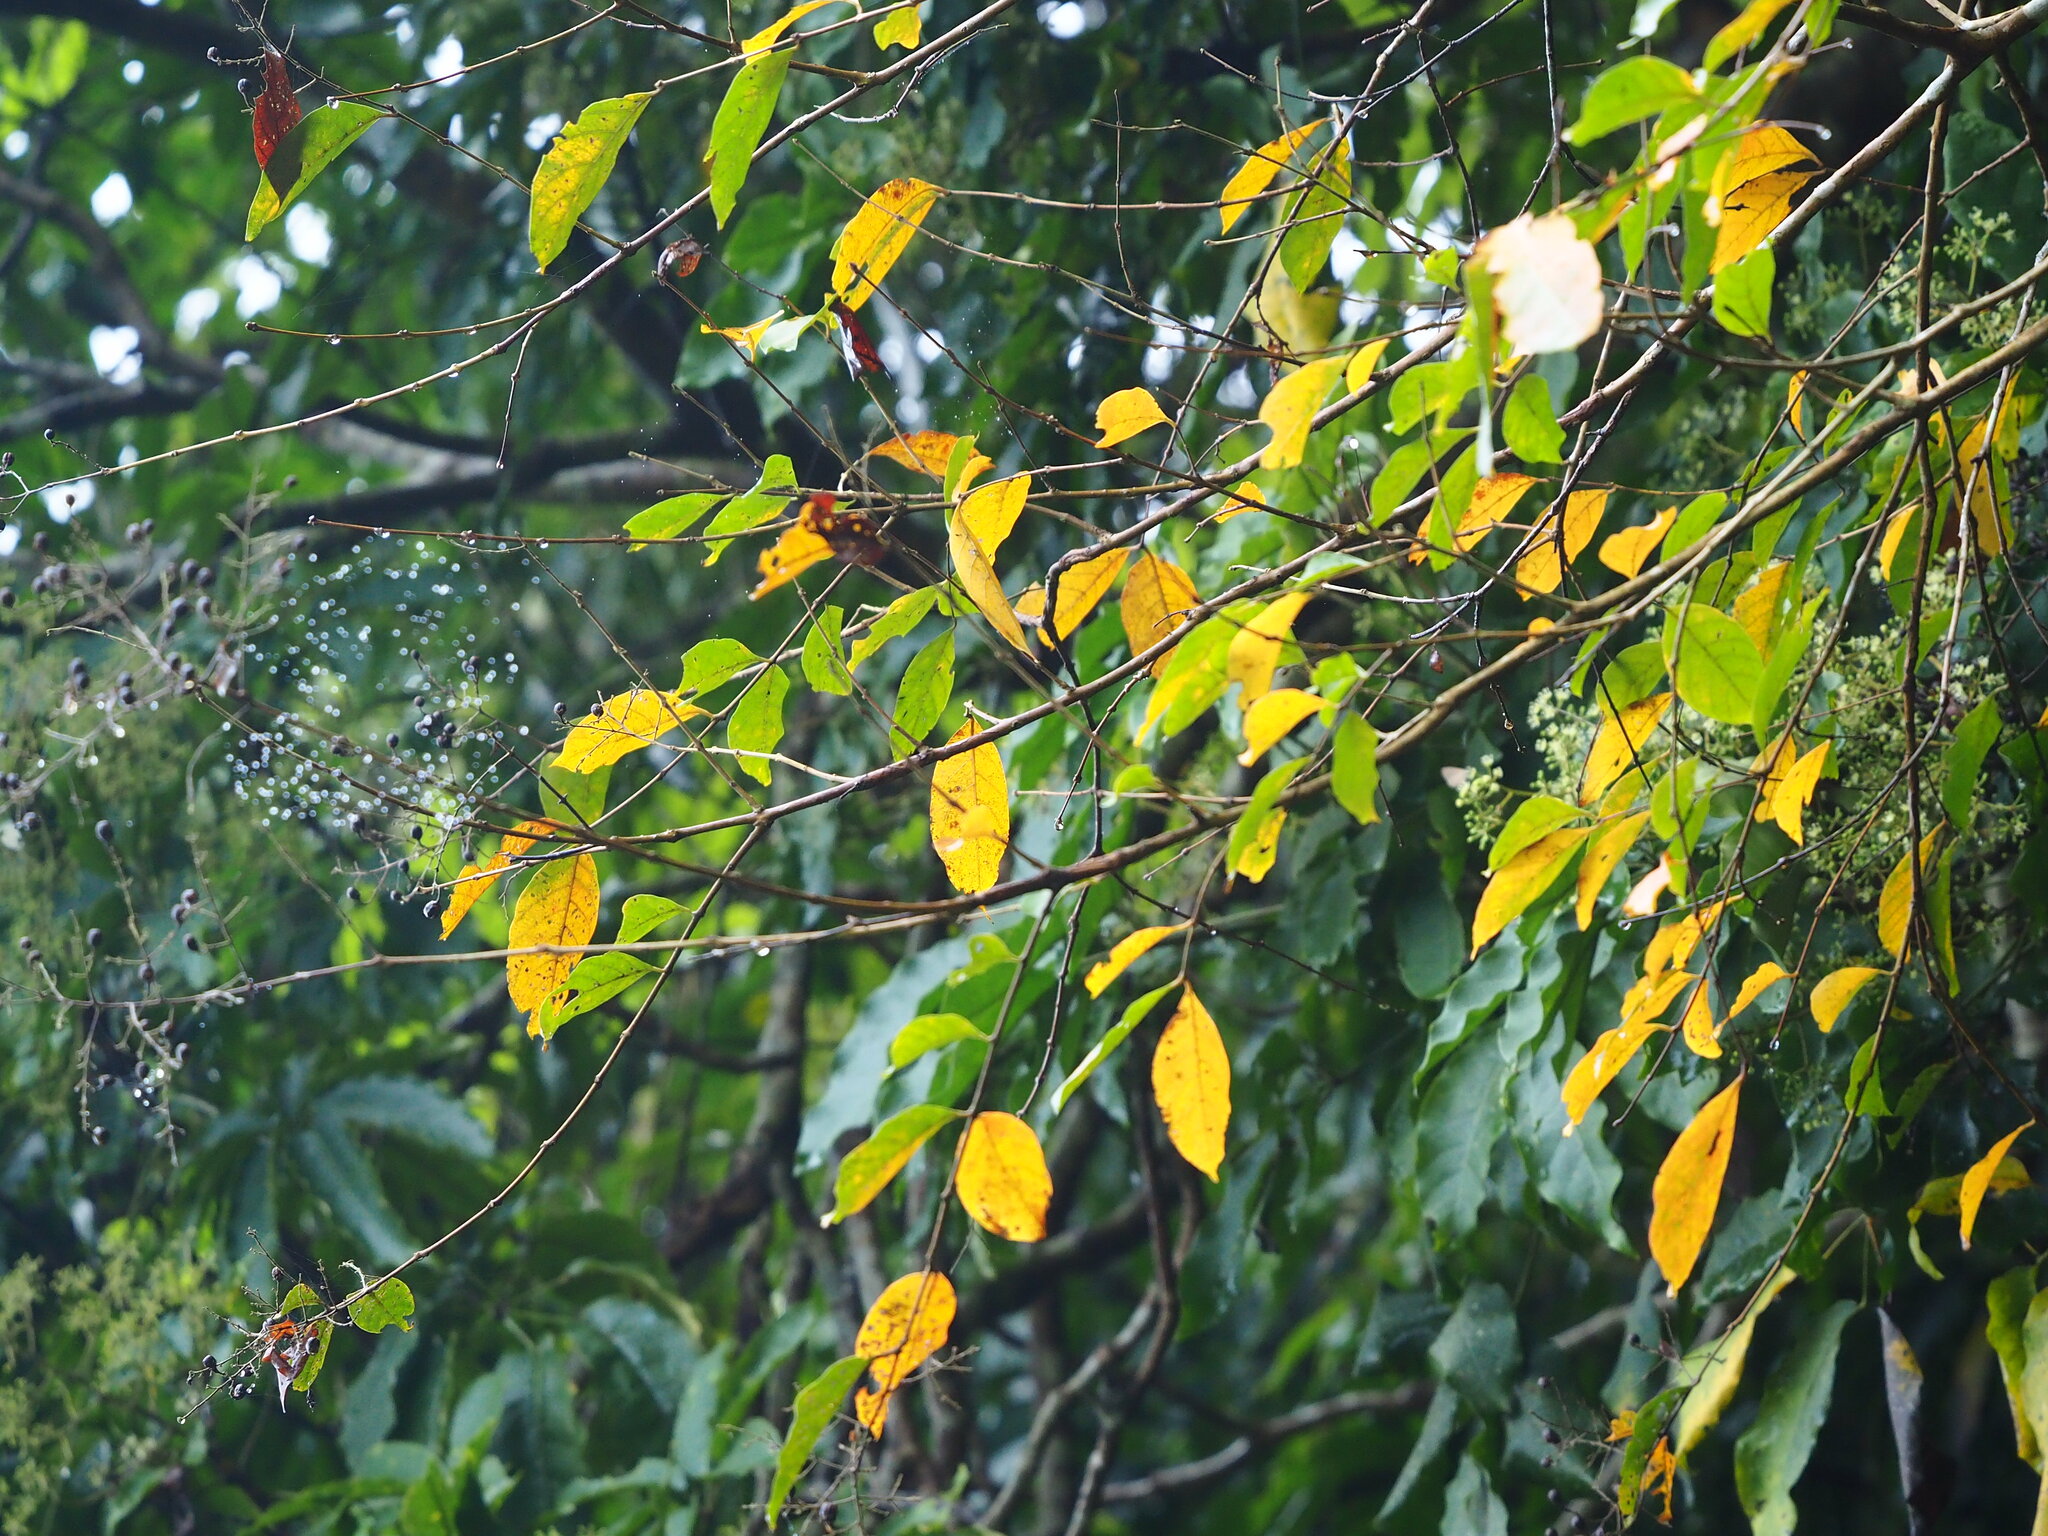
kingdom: Plantae
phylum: Tracheophyta
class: Magnoliopsida
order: Myrtales
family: Lythraceae
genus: Lagerstroemia
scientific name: Lagerstroemia subcostata
